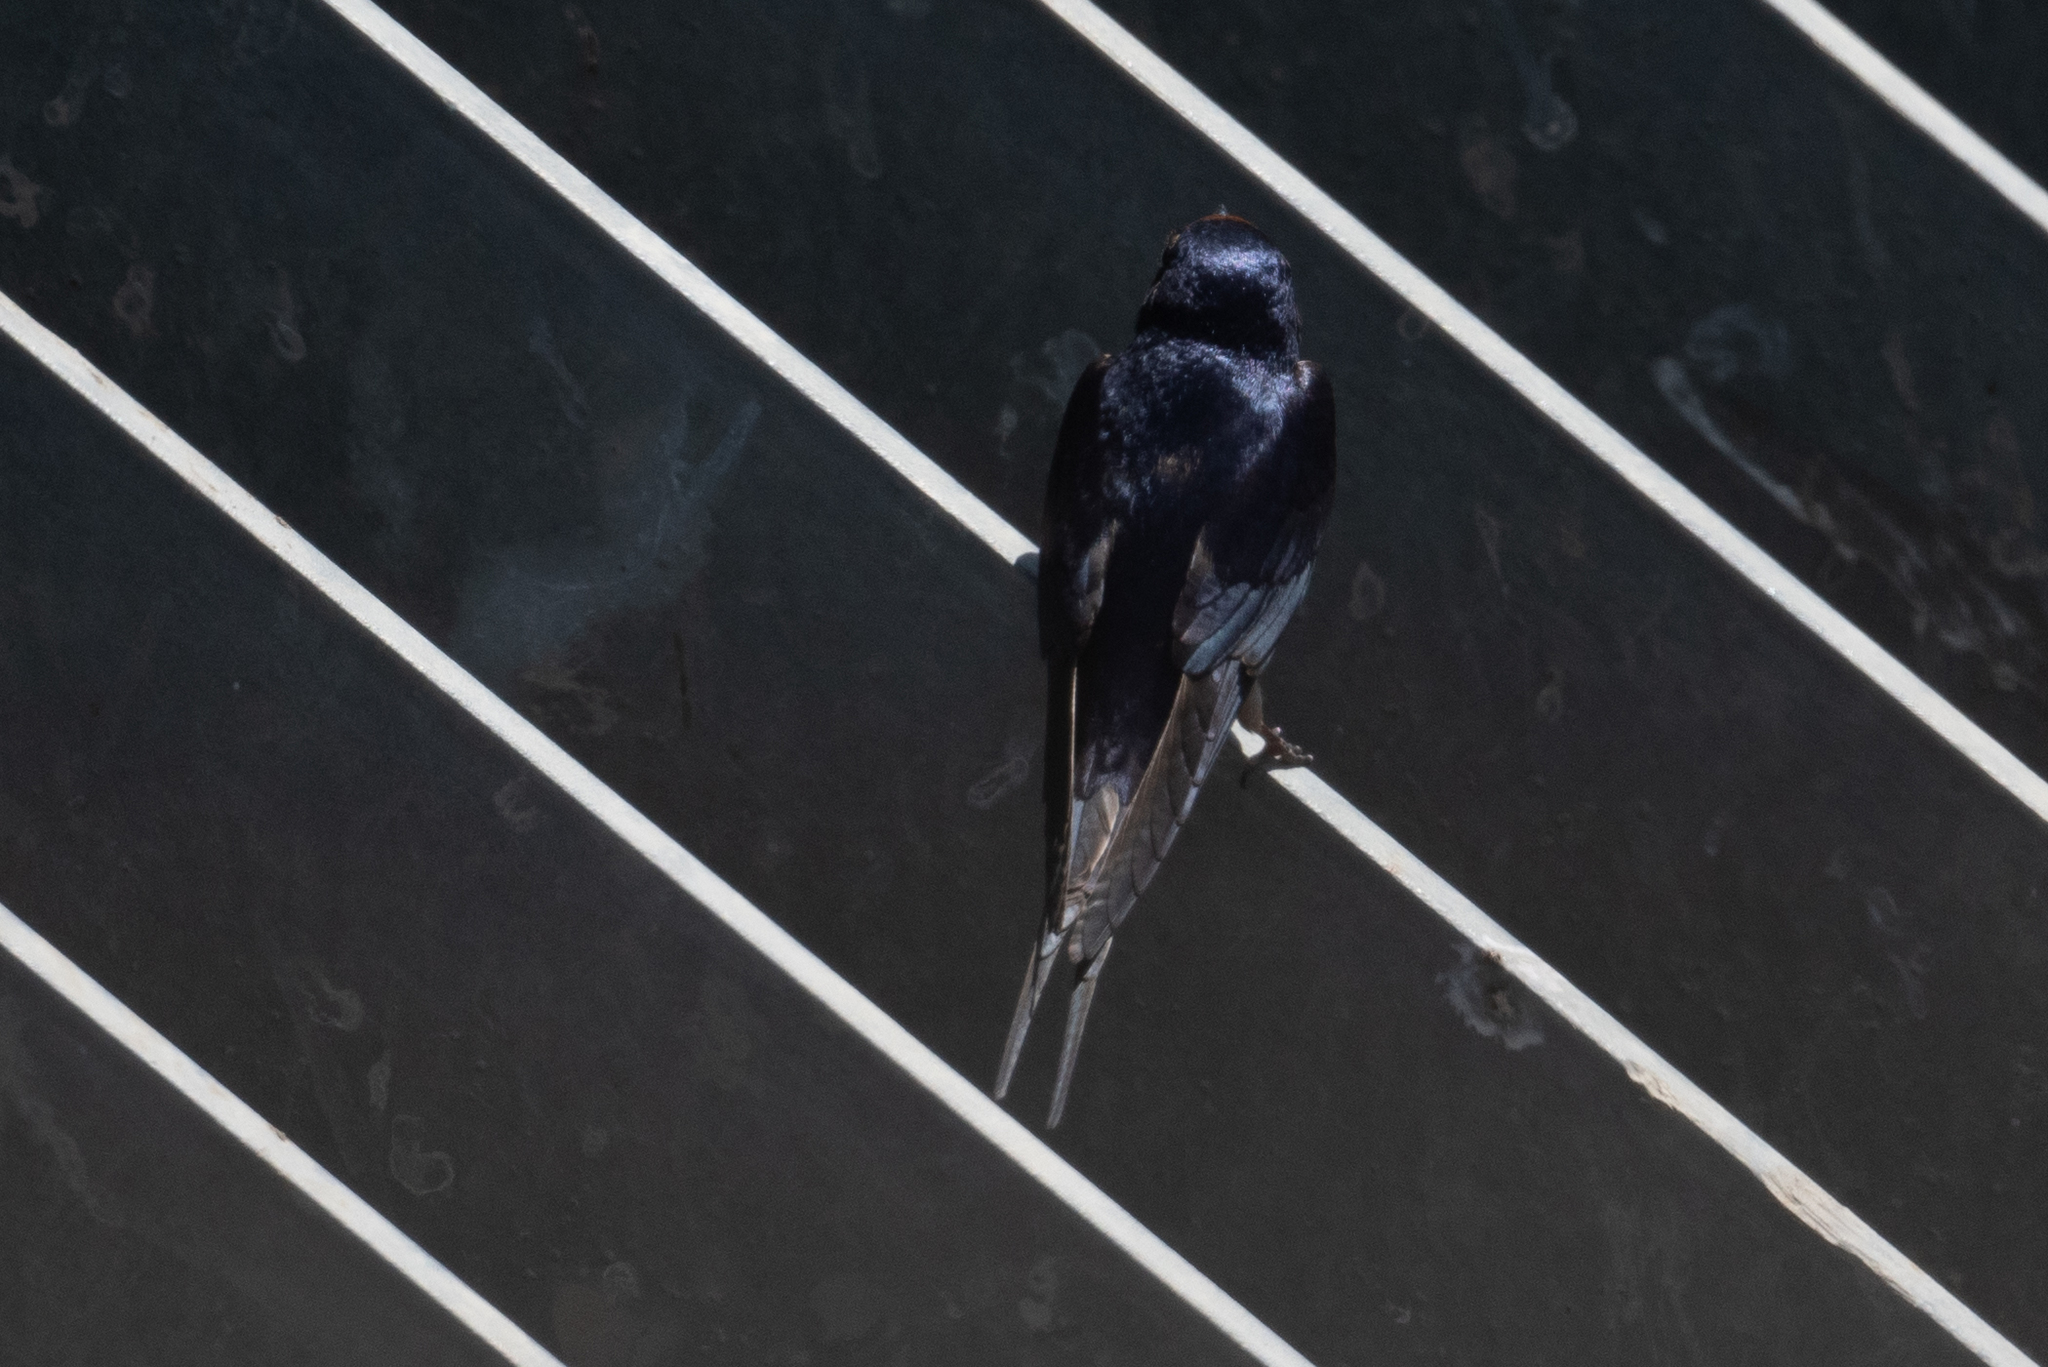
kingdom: Animalia
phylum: Chordata
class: Aves
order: Passeriformes
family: Hirundinidae
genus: Hirundo
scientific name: Hirundo rustica
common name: Barn swallow
